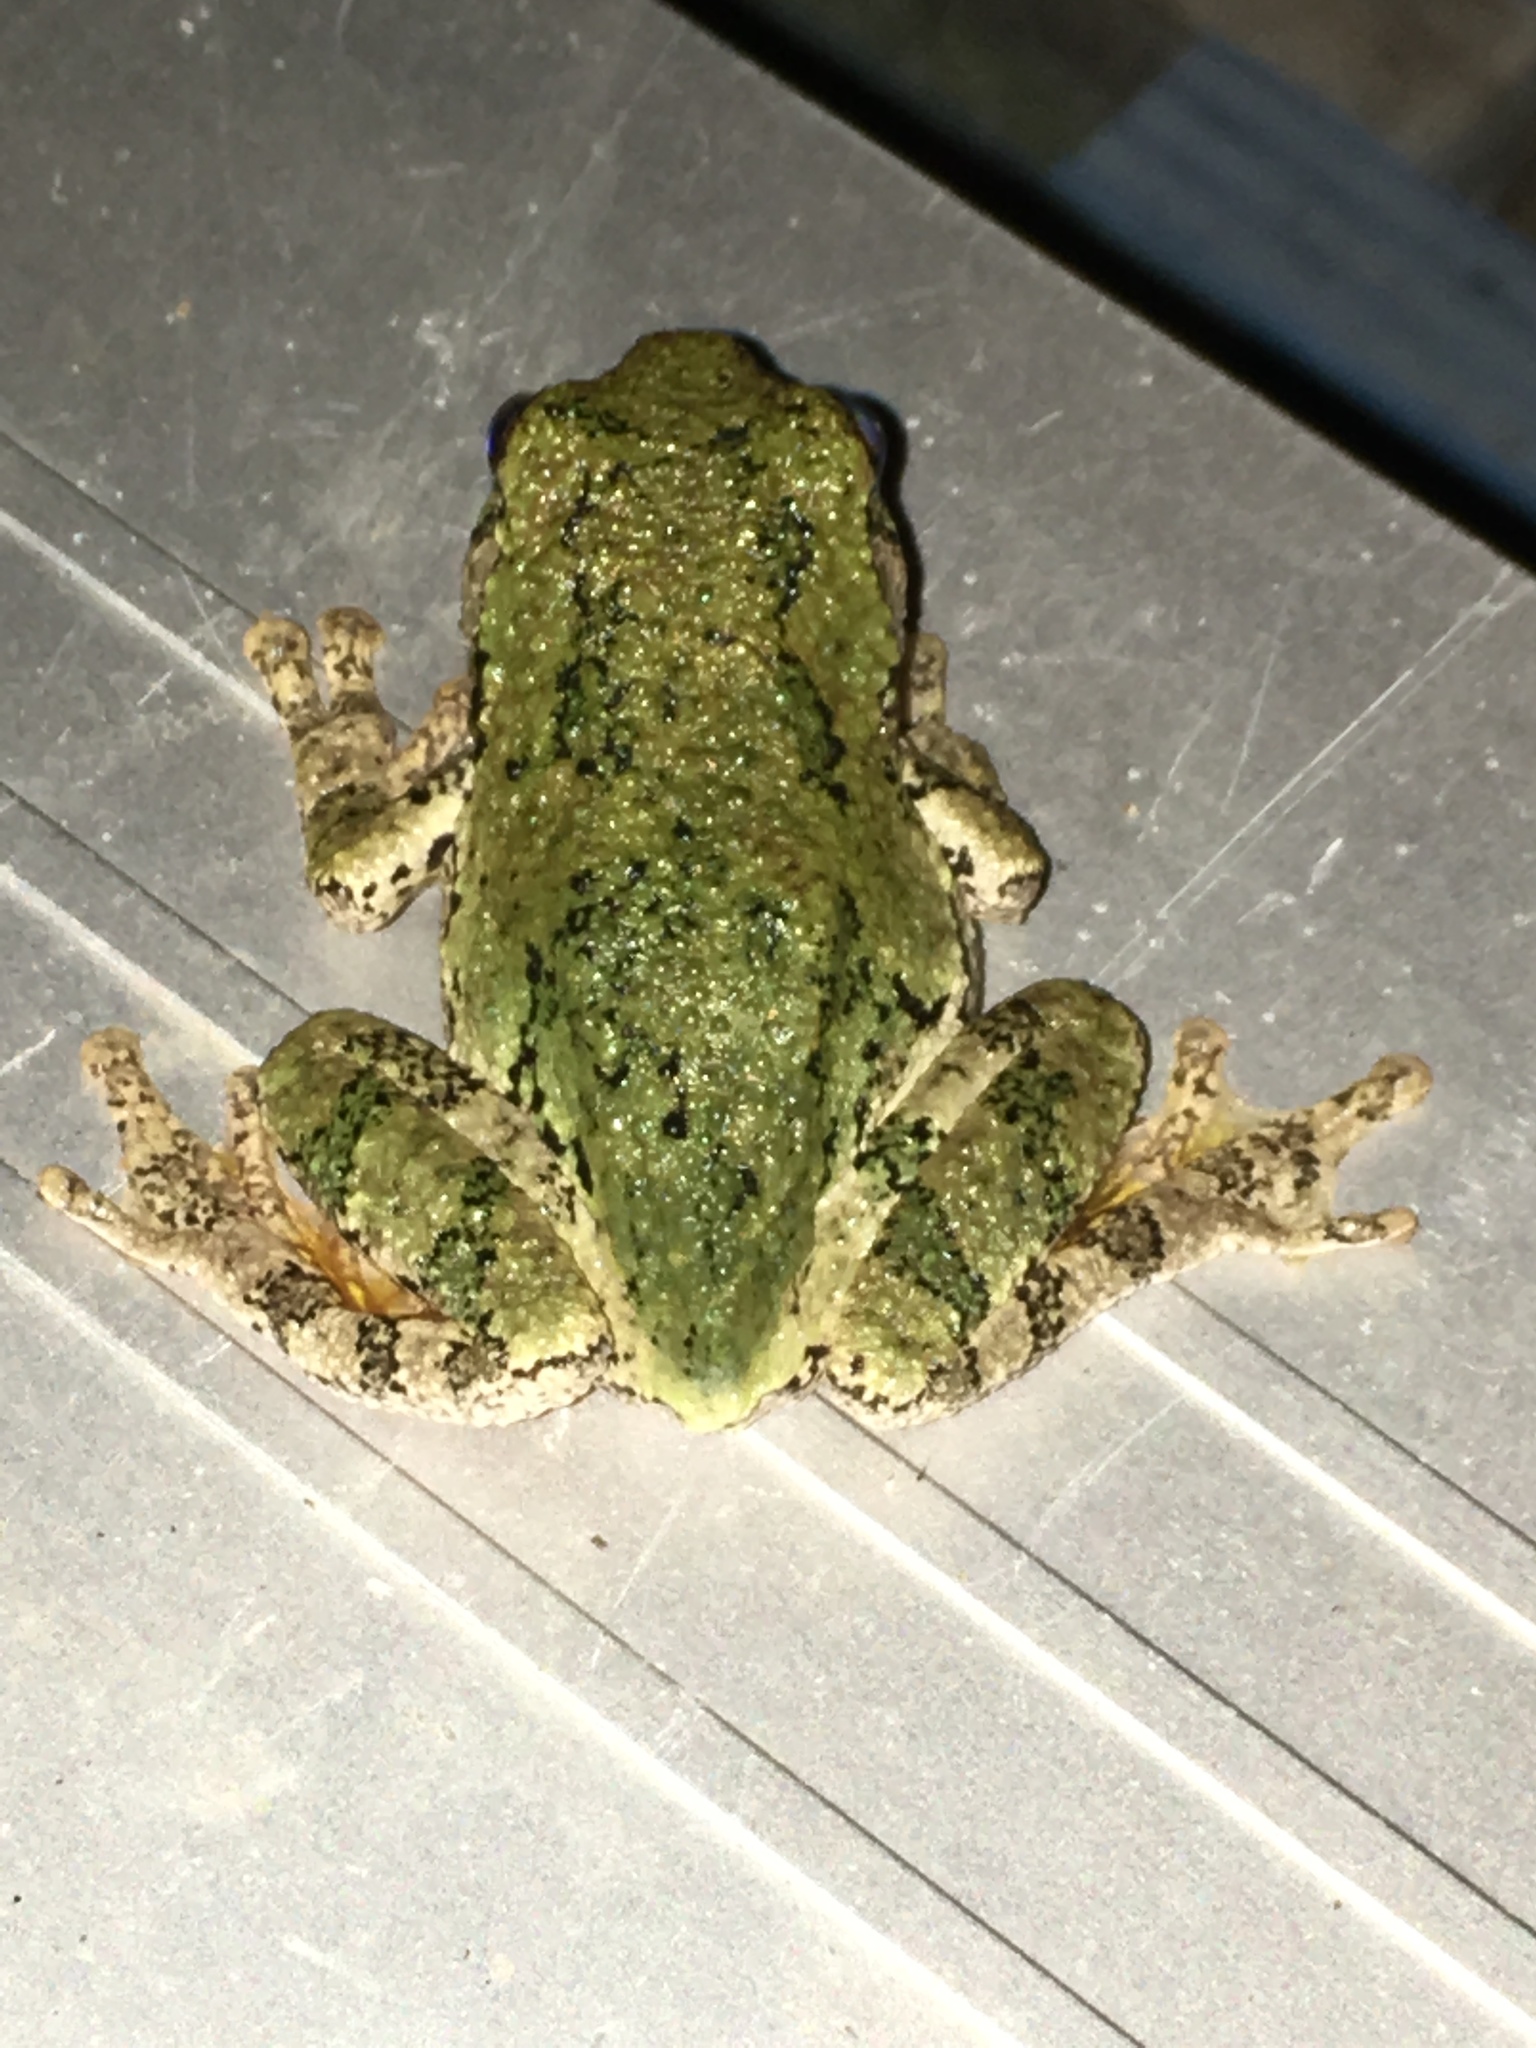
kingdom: Animalia
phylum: Chordata
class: Amphibia
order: Anura
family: Hylidae
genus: Dryophytes
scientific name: Dryophytes versicolor
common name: Gray treefrog
